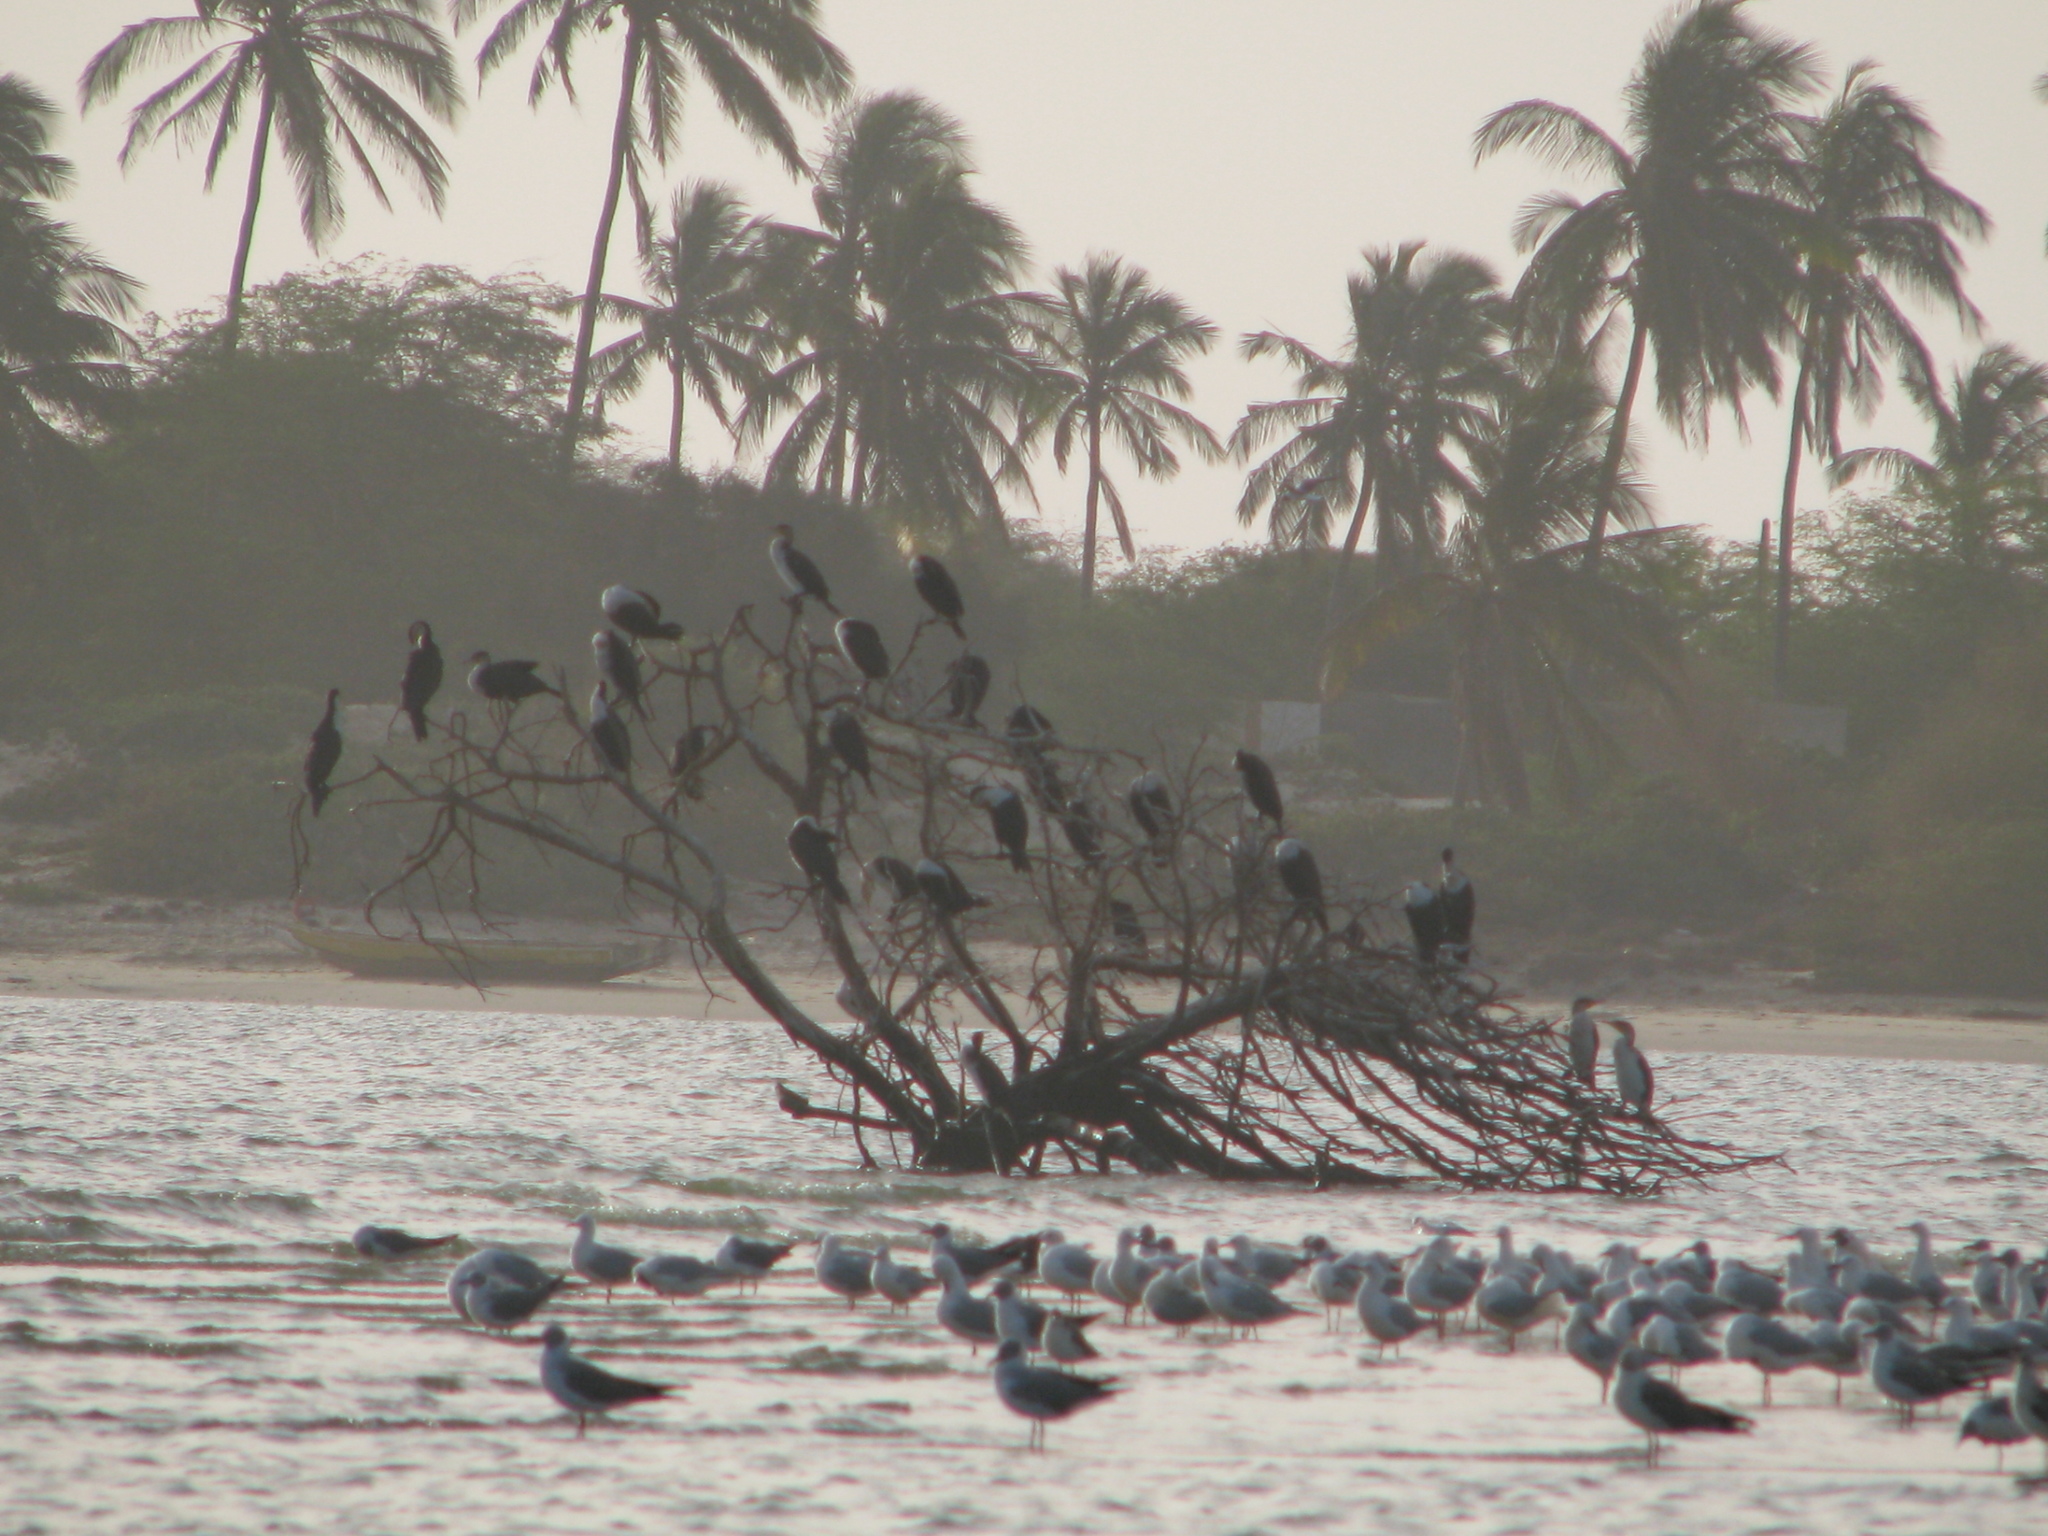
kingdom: Animalia
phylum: Chordata
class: Aves
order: Suliformes
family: Phalacrocoracidae
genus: Phalacrocorax
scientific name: Phalacrocorax carbo
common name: Great cormorant
